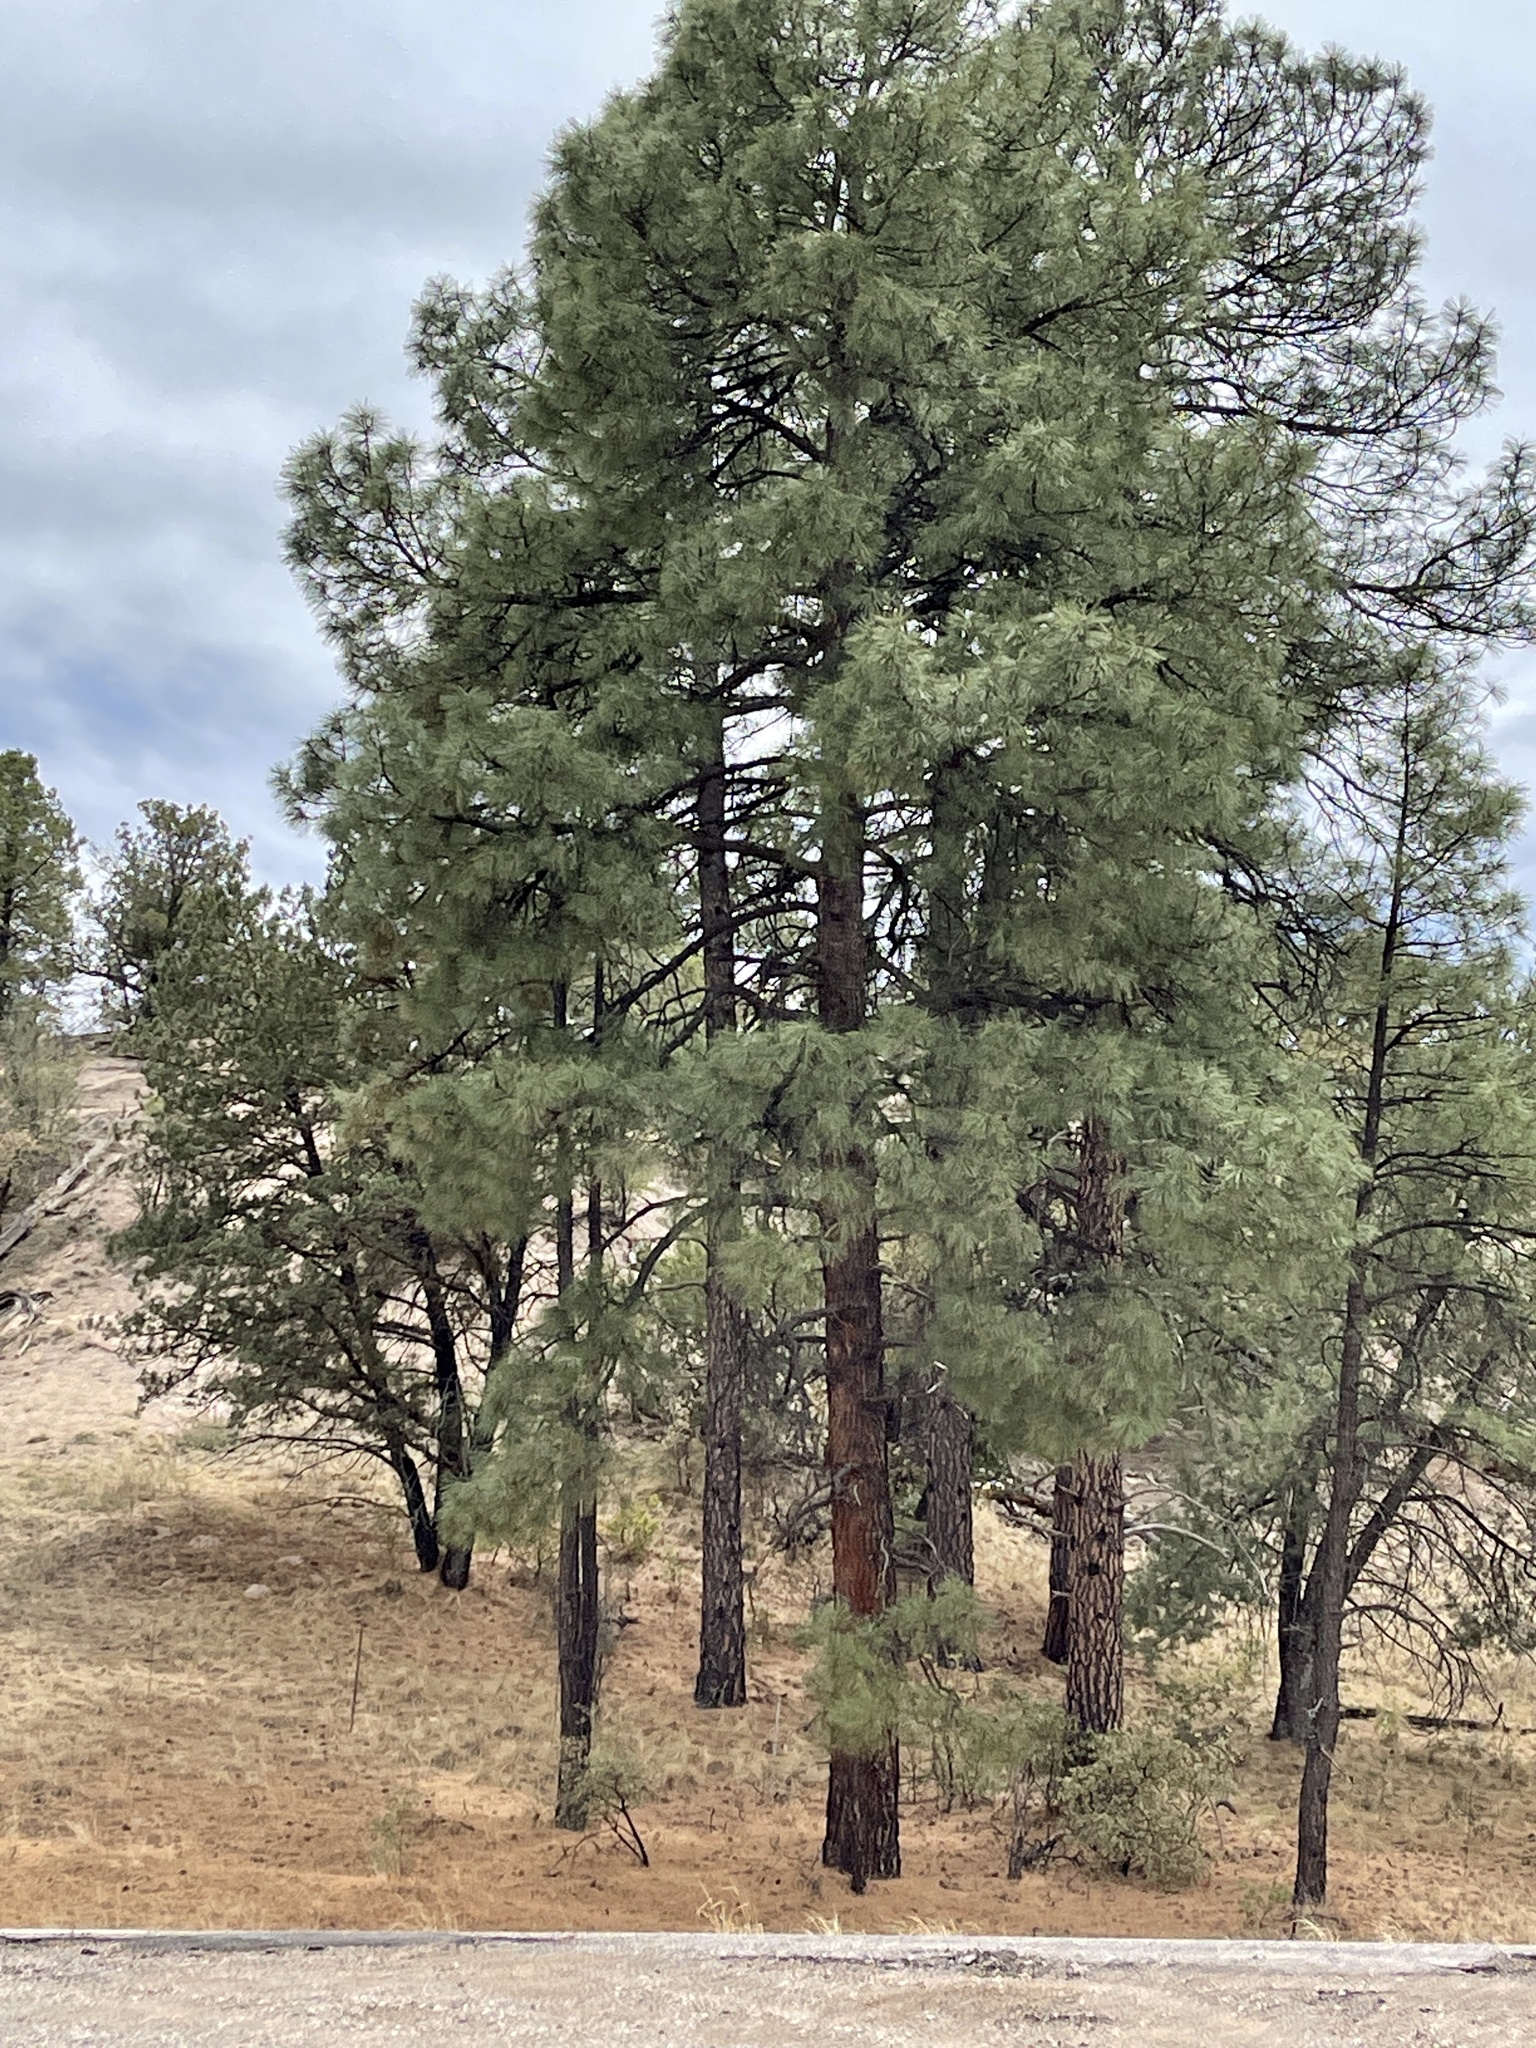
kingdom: Plantae
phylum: Tracheophyta
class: Pinopsida
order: Pinales
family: Pinaceae
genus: Pinus
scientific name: Pinus ponderosa
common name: Western yellow-pine
